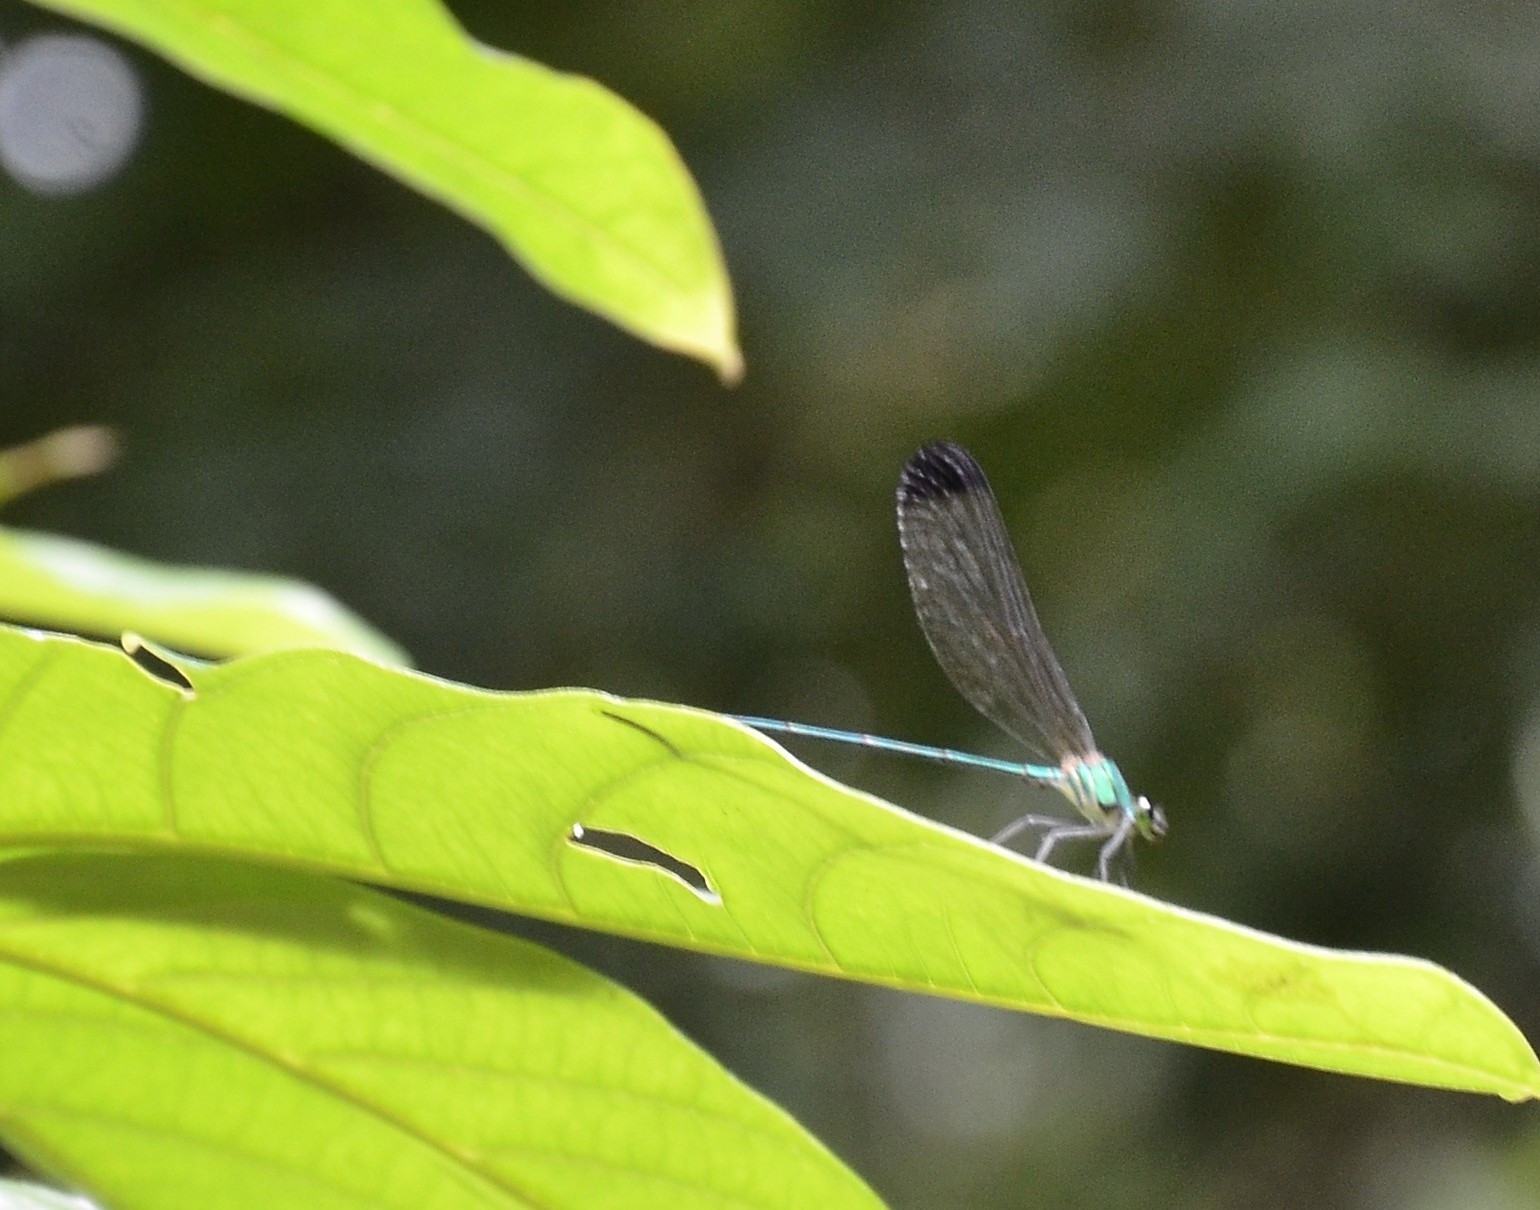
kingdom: Animalia
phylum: Arthropoda
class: Insecta
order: Odonata
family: Calopterygidae
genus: Vestalis
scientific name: Vestalis apicalis
